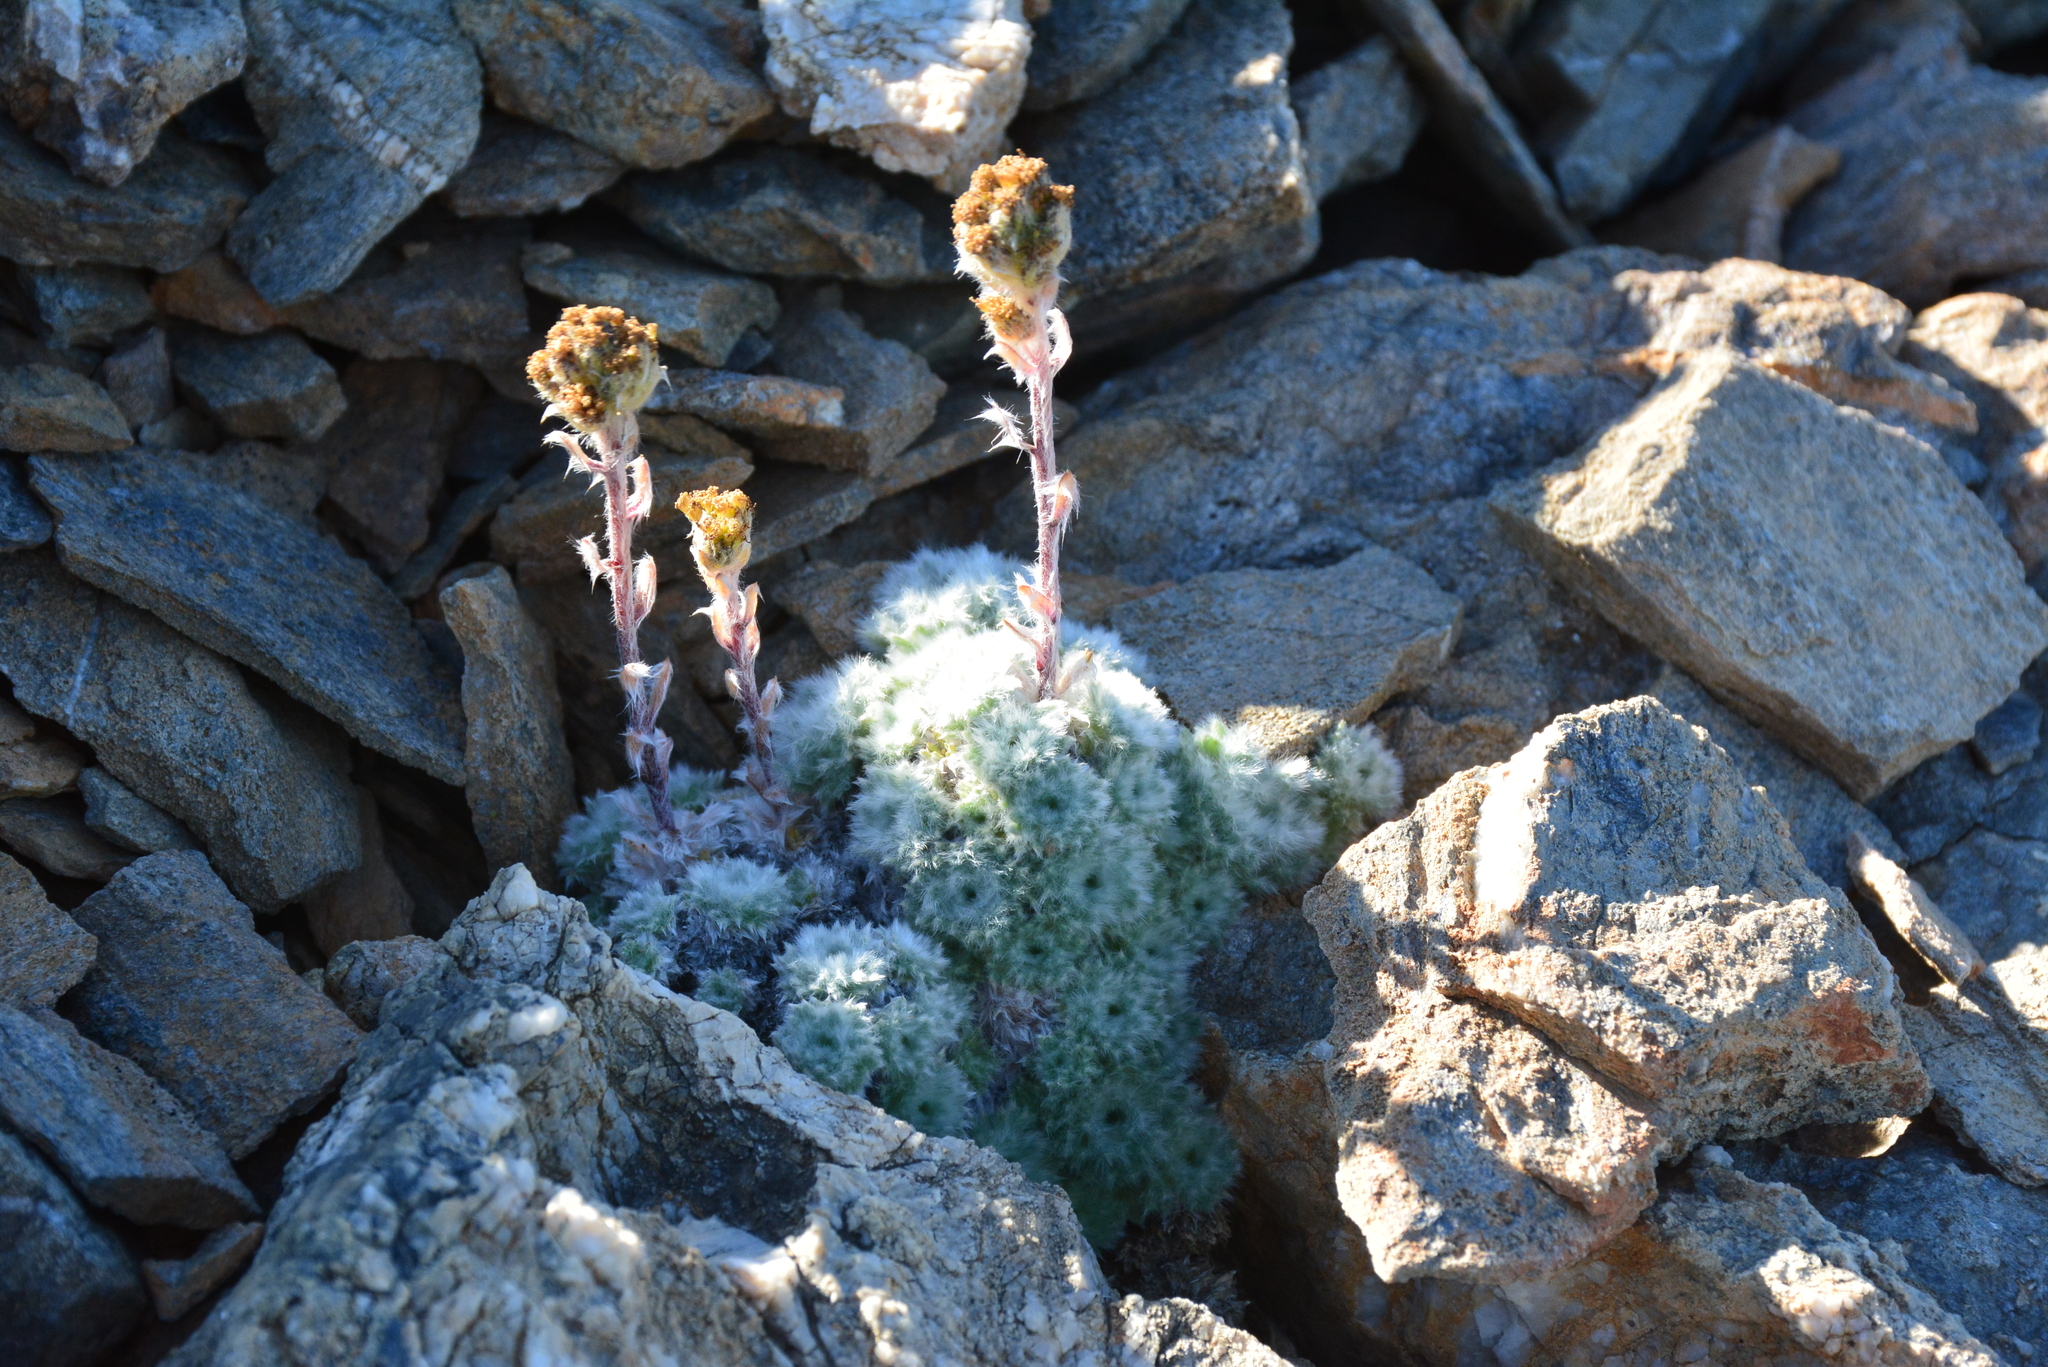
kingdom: Plantae
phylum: Tracheophyta
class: Magnoliopsida
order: Asterales
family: Asteraceae
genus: Artemisia
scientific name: Artemisia senjavinensis
